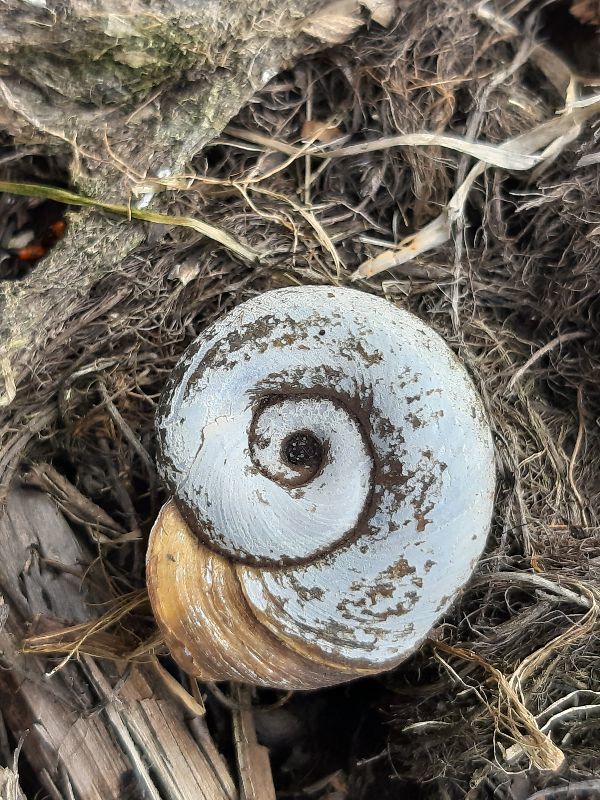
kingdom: Animalia
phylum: Mollusca
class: Gastropoda
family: Planorbidae
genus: Planorbarius
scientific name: Planorbarius corneus
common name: Great ramshorn
